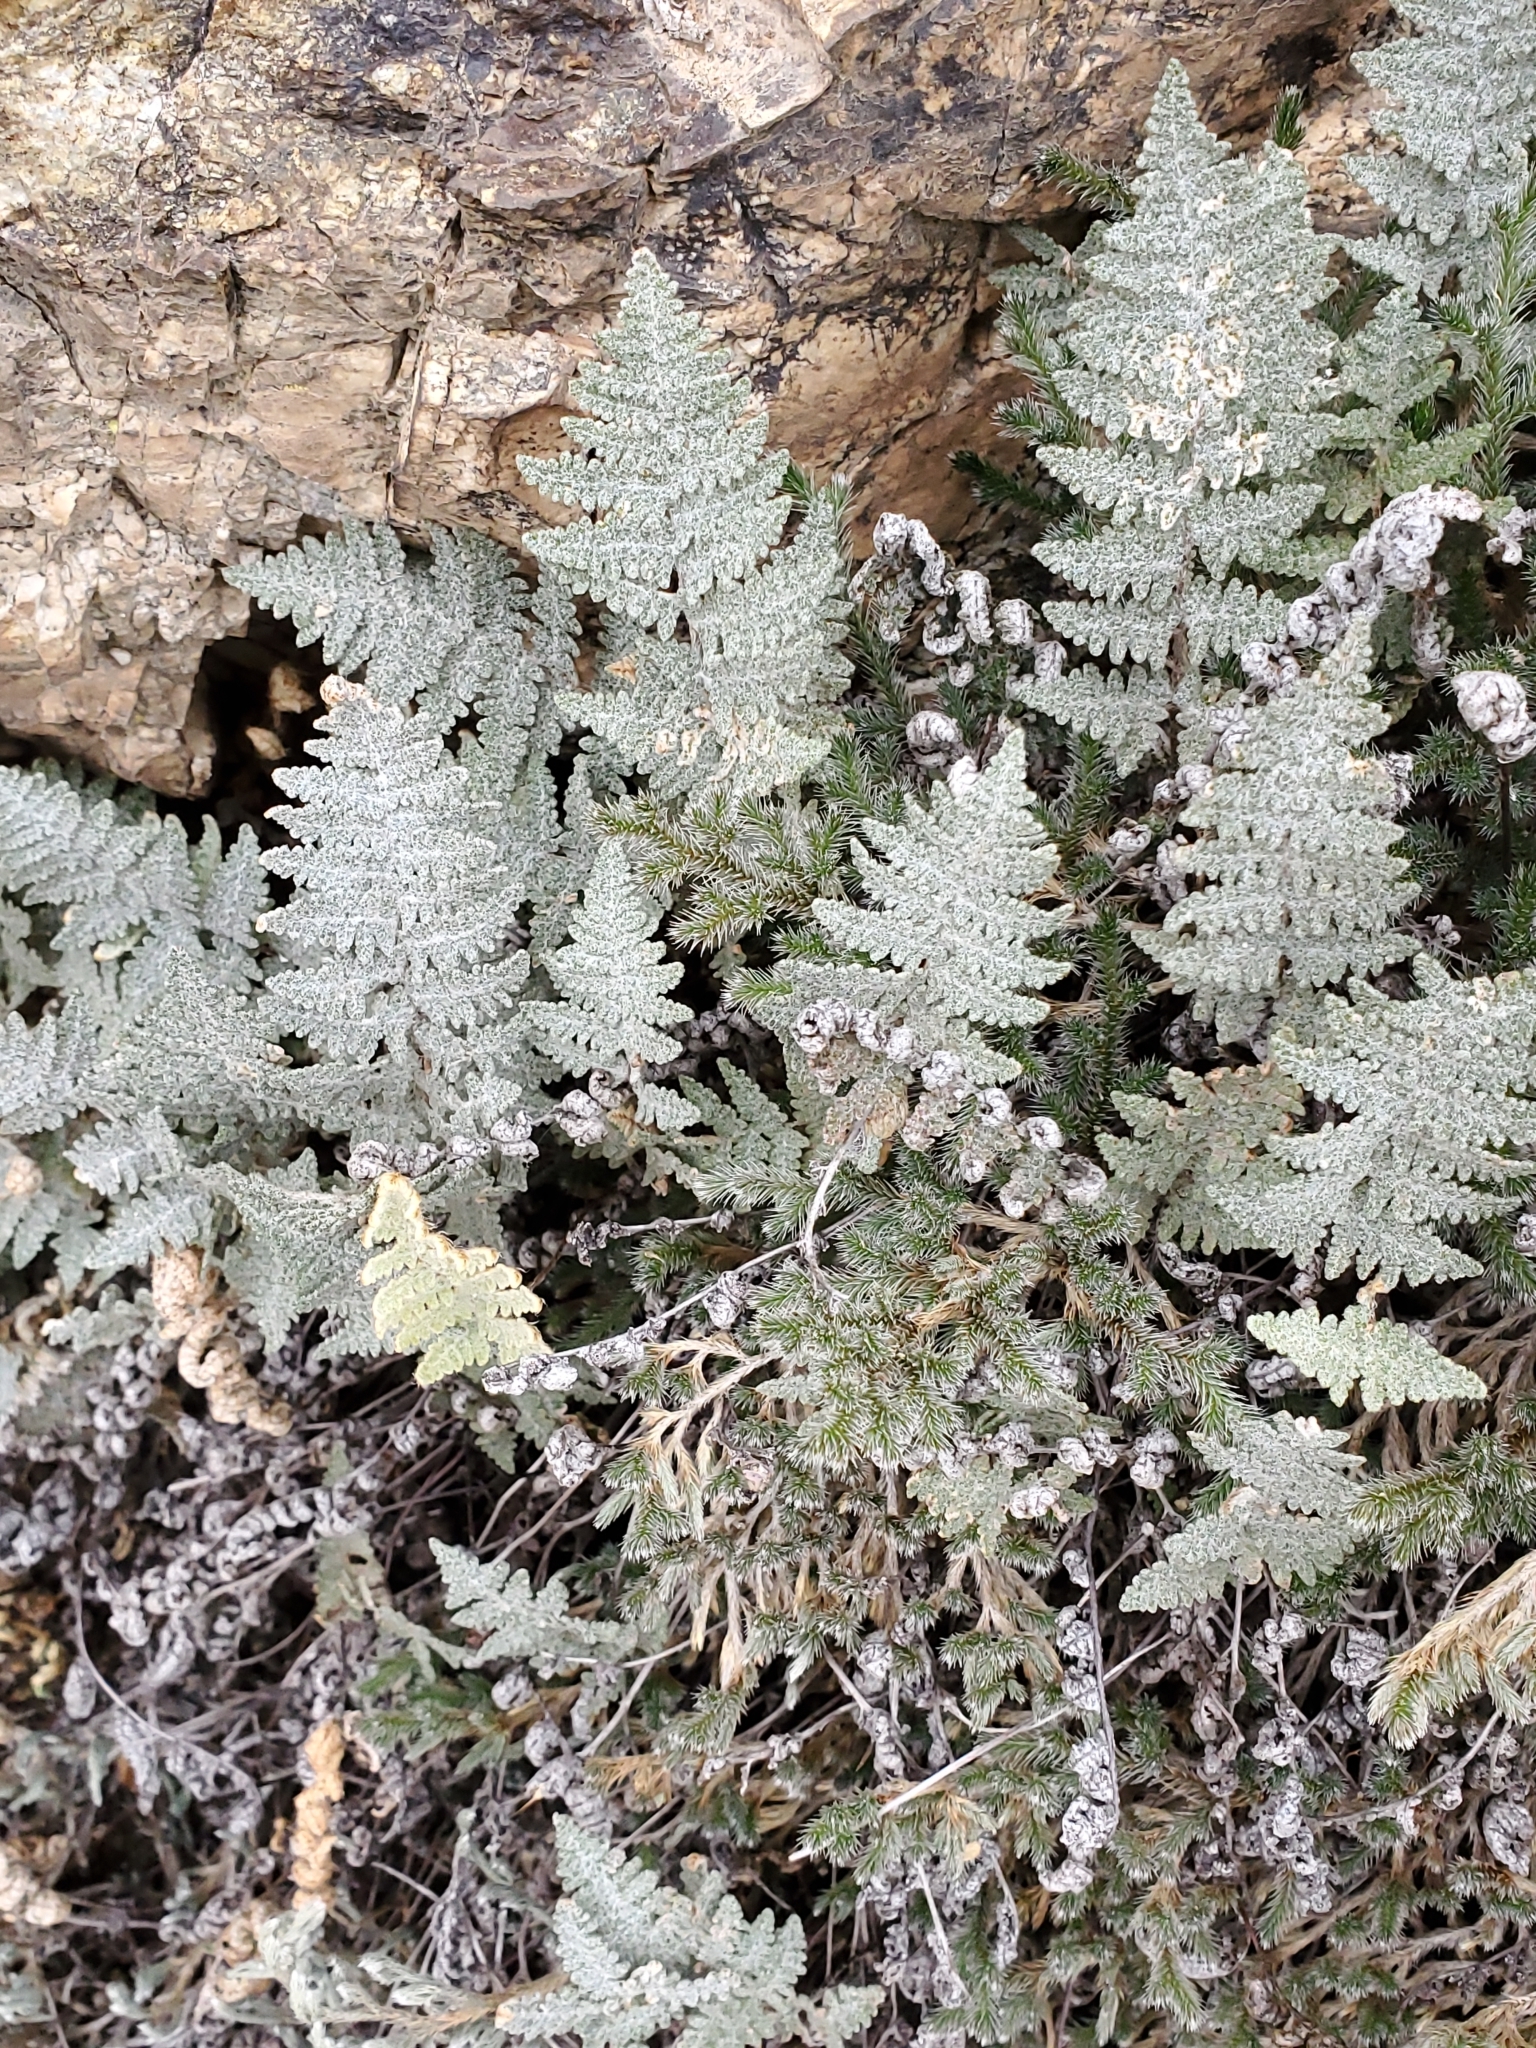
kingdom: Plantae
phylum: Tracheophyta
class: Polypodiopsida
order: Polypodiales
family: Pteridaceae
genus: Myriopteris
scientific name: Myriopteris lindheimeri
